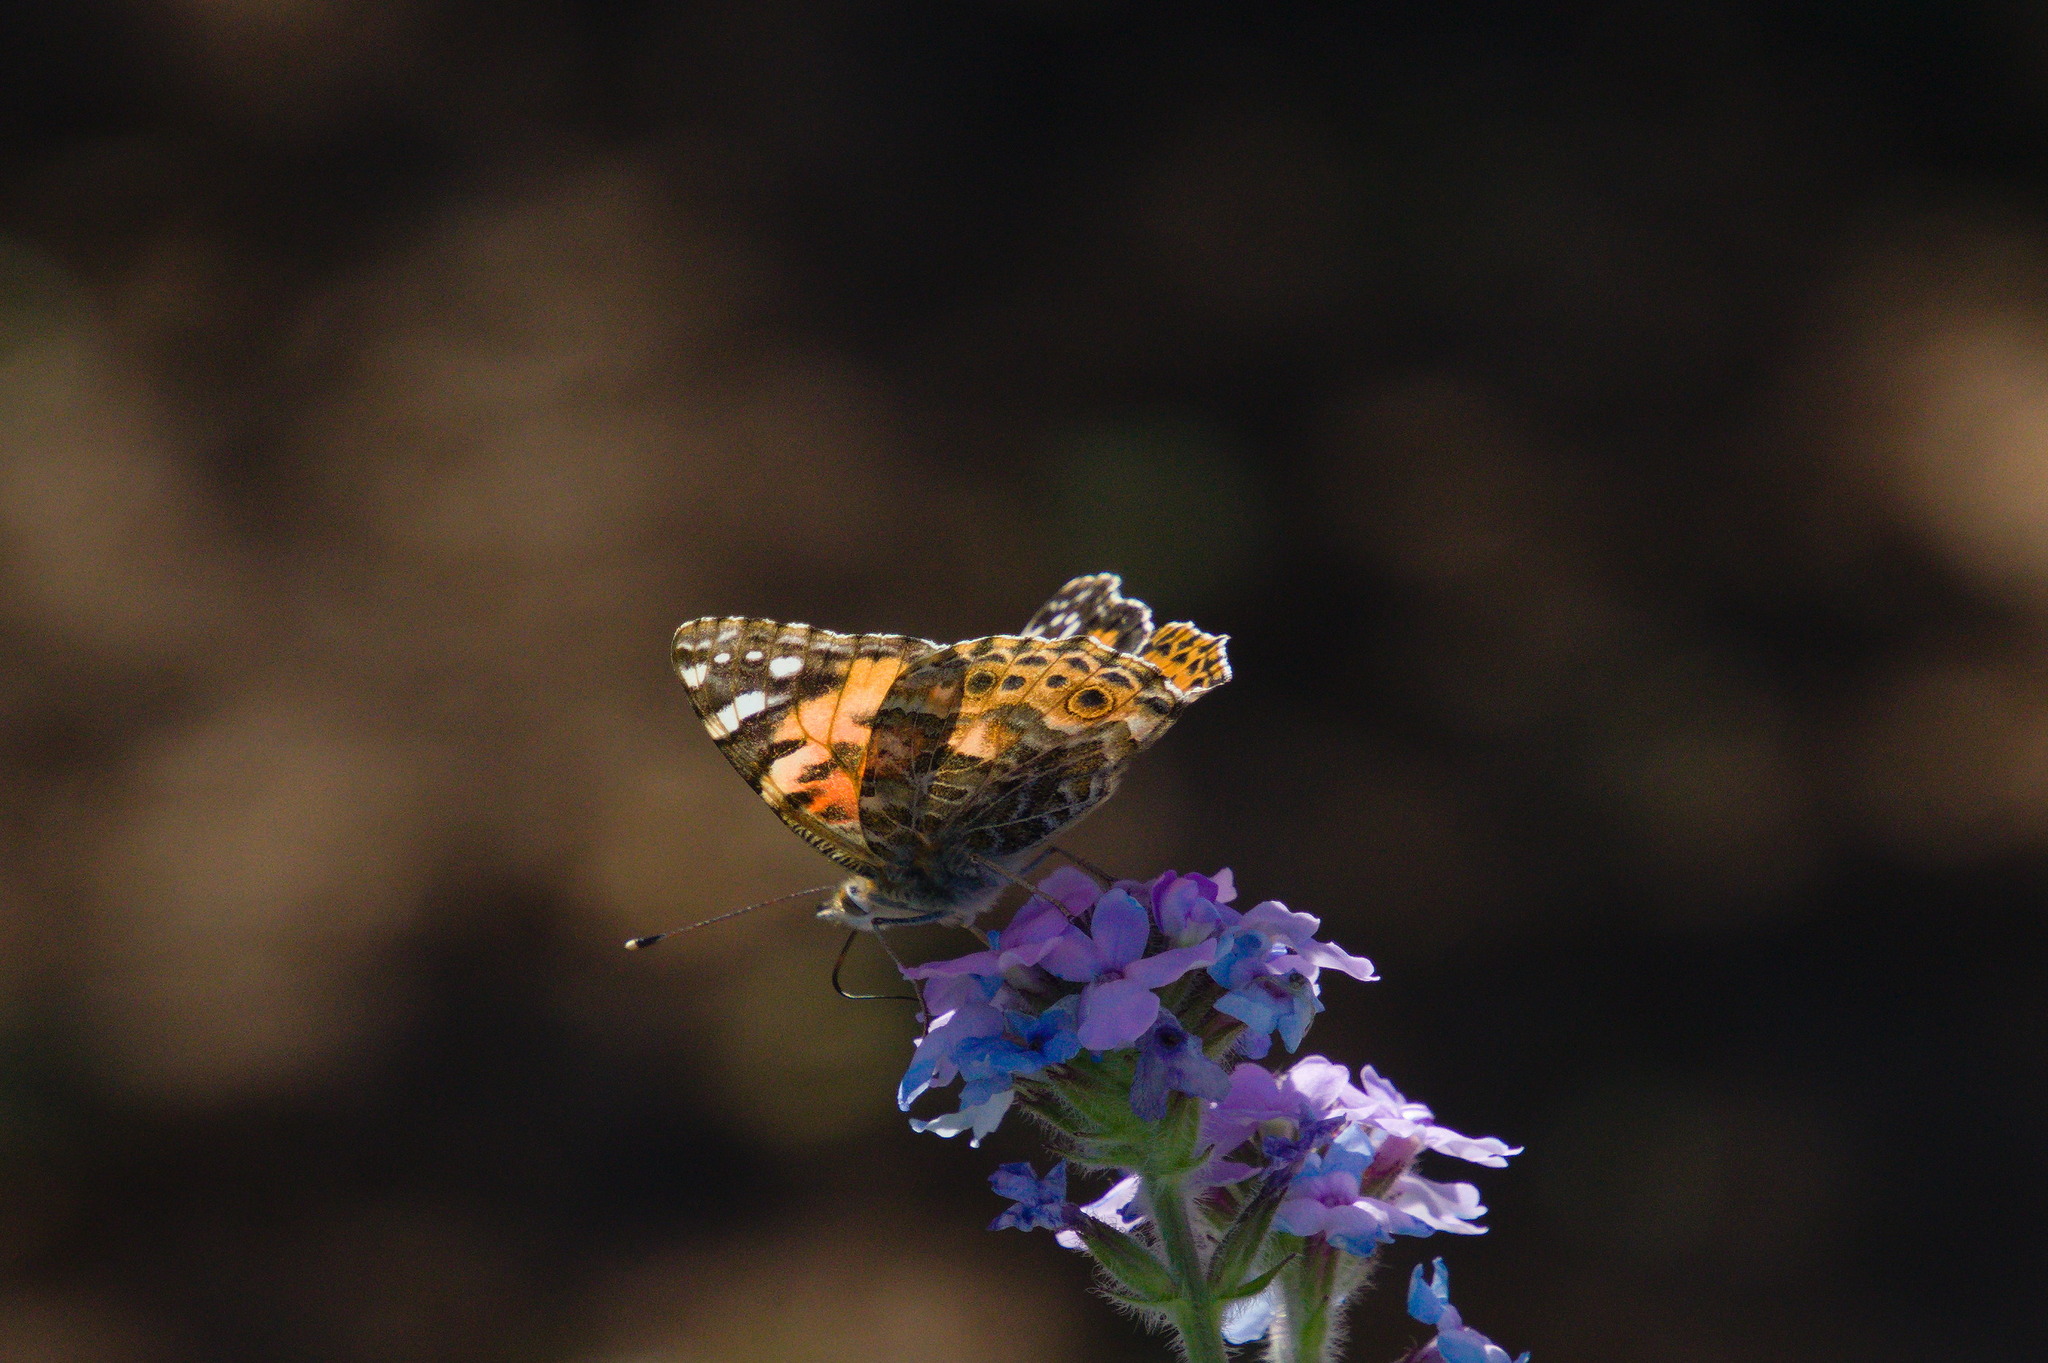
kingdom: Animalia
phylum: Arthropoda
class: Insecta
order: Lepidoptera
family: Nymphalidae
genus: Vanessa
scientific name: Vanessa cardui
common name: Painted lady
